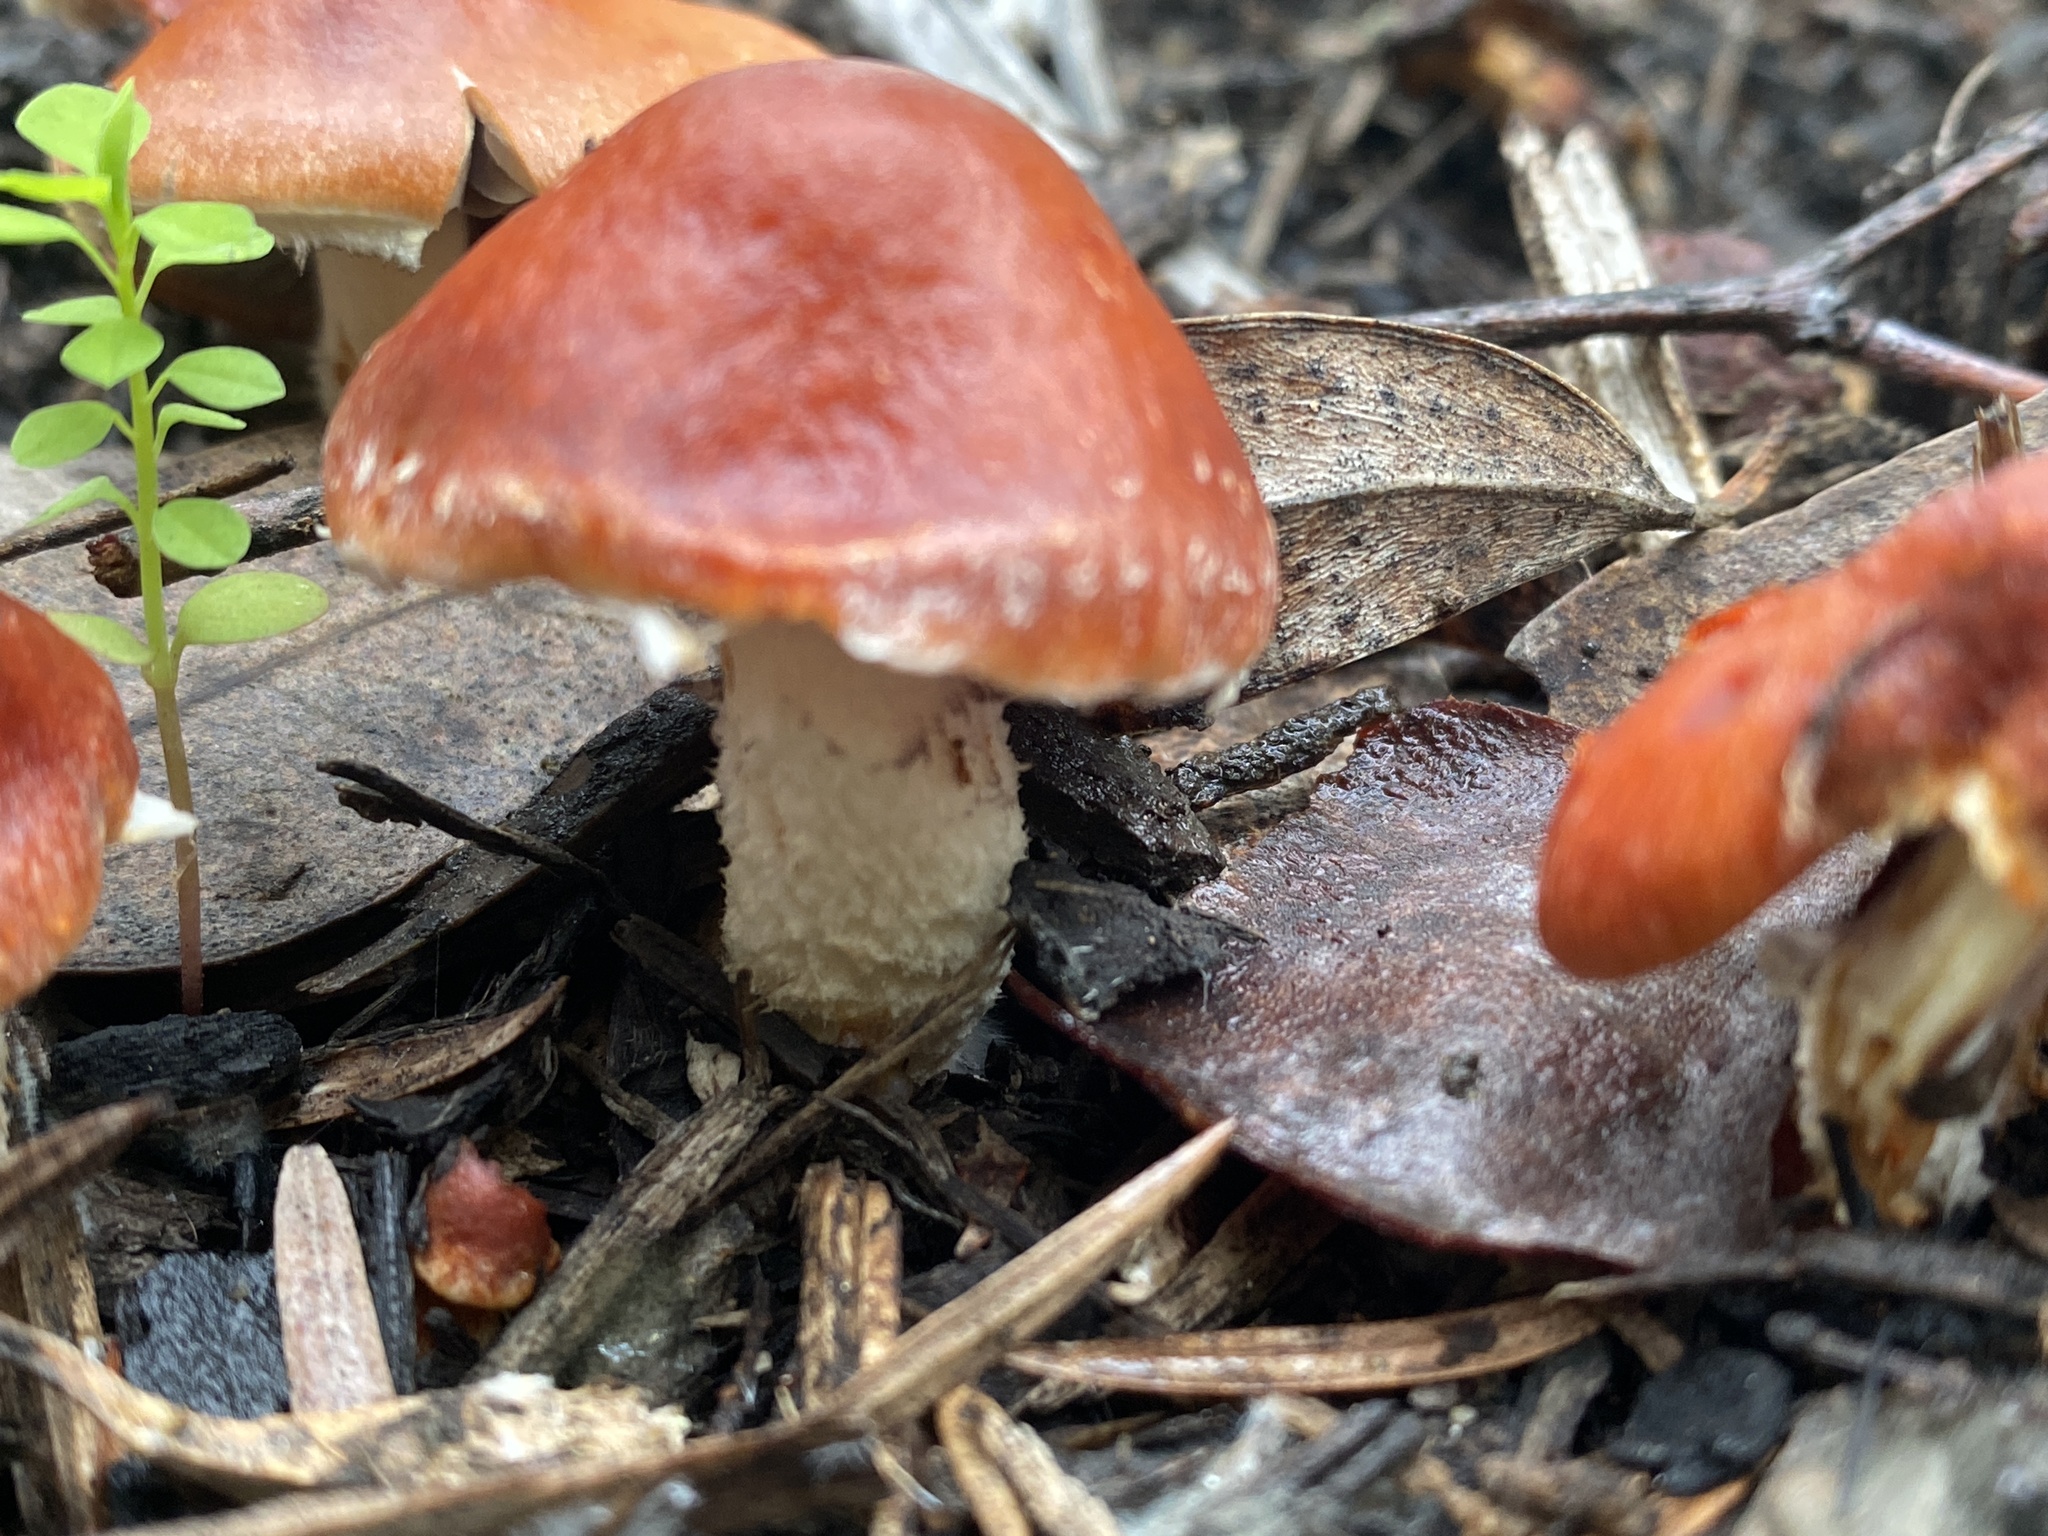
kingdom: Fungi
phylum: Basidiomycota
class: Agaricomycetes
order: Agaricales
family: Strophariaceae
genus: Leratiomyces
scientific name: Leratiomyces ceres
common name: Redlead roundhead
